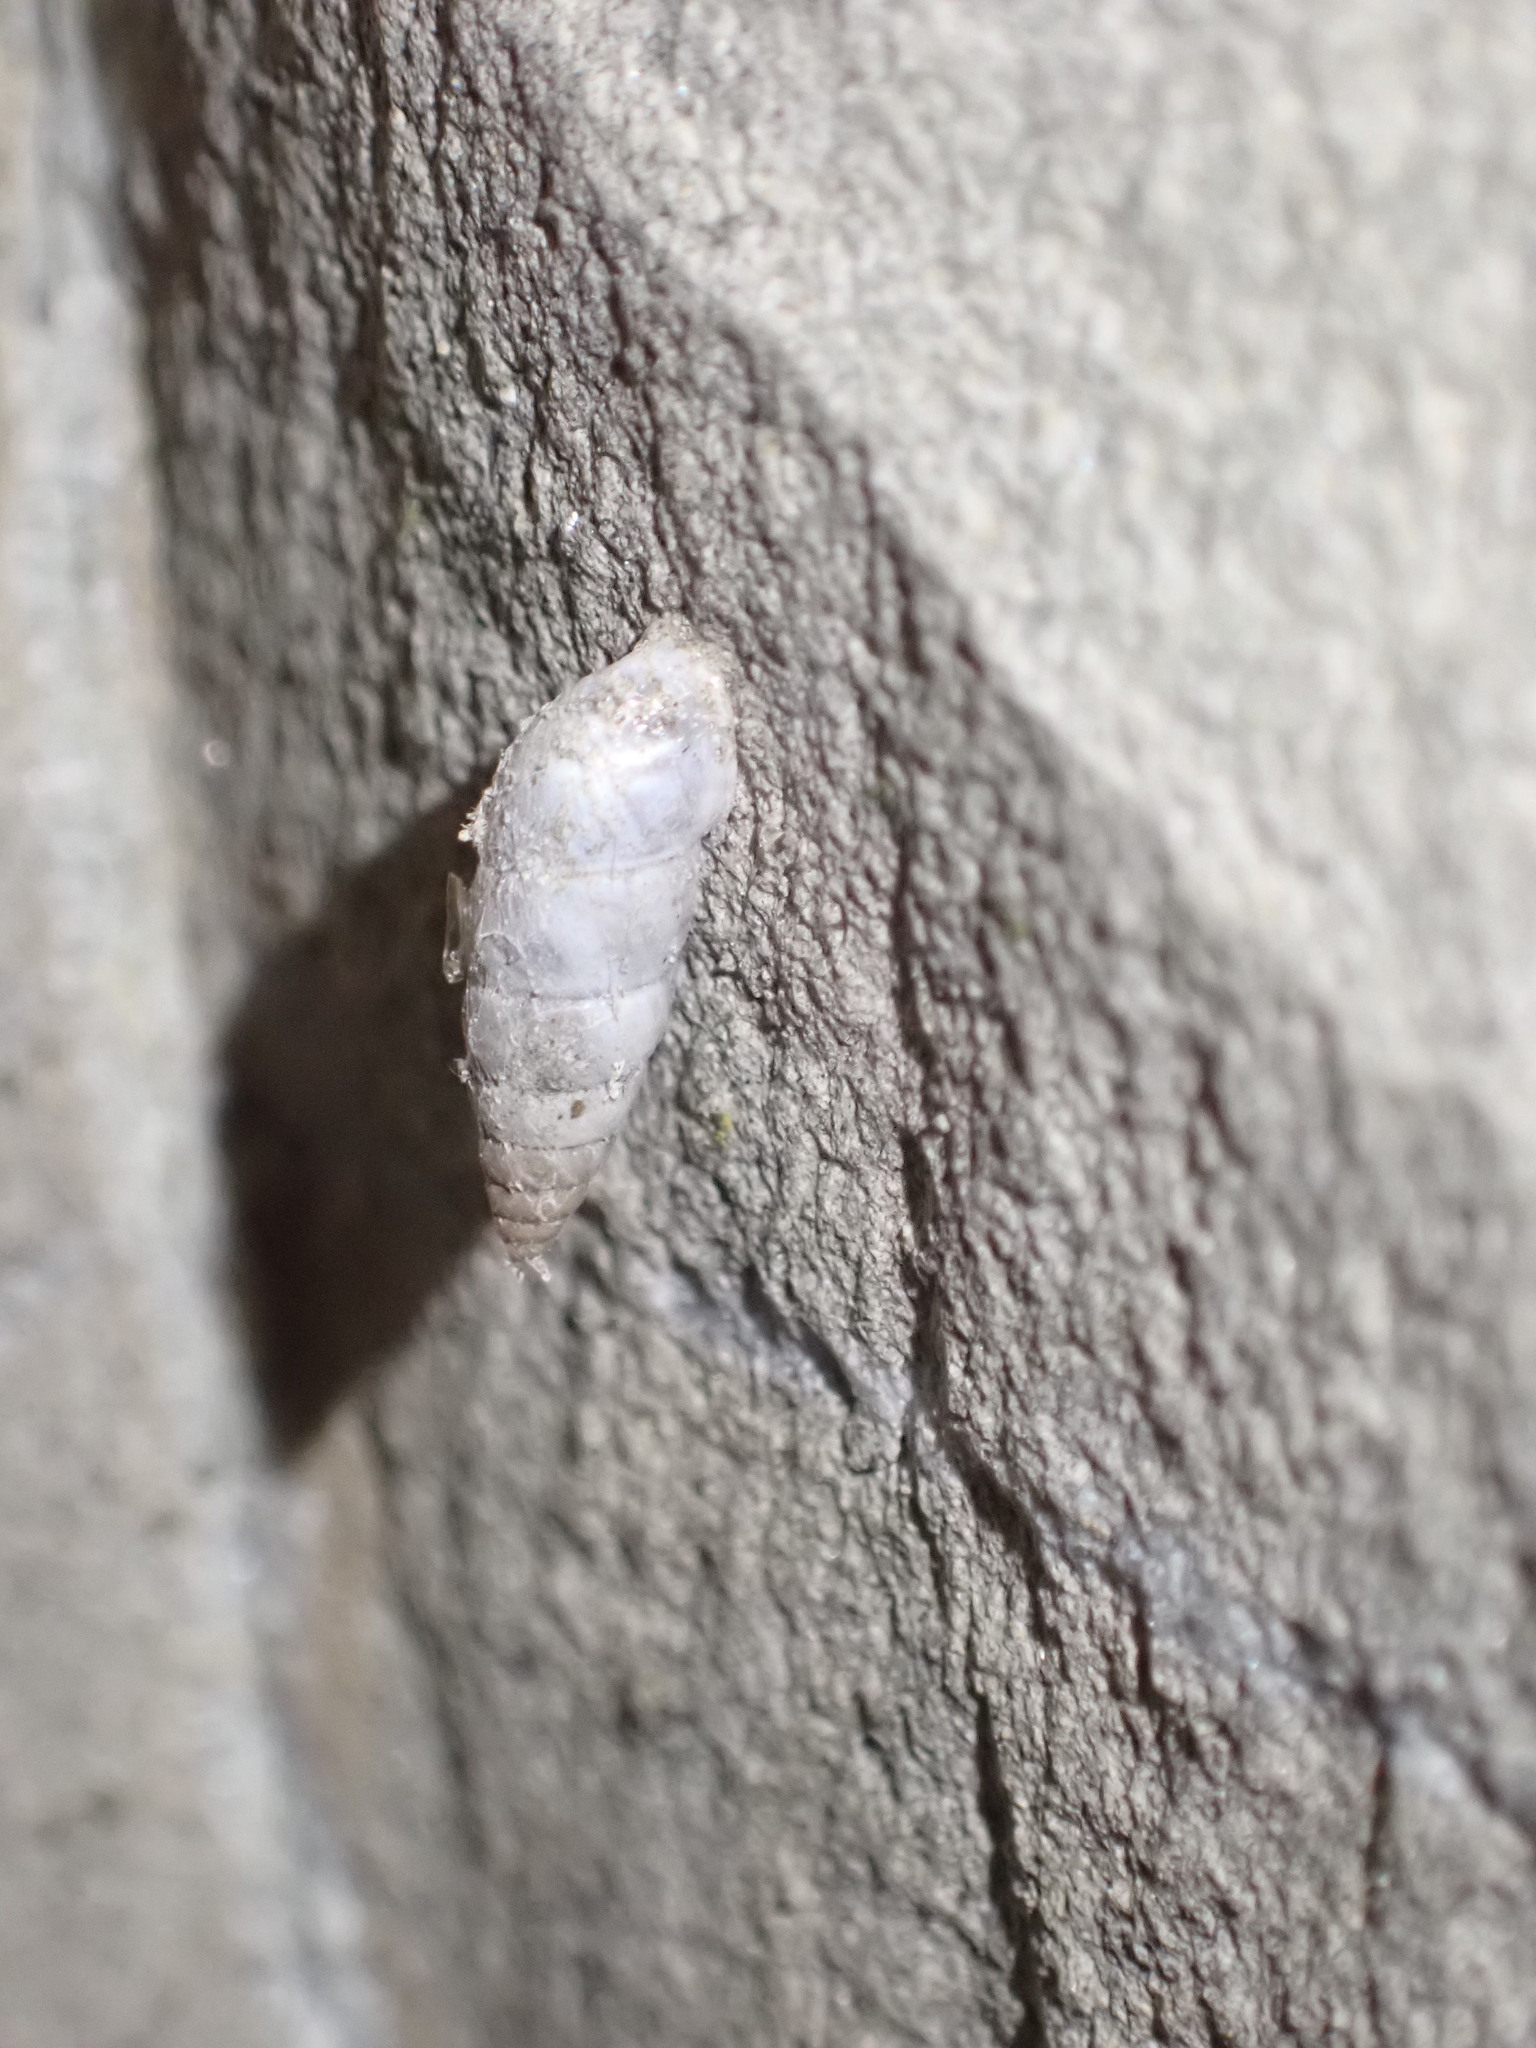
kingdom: Animalia
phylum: Mollusca
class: Gastropoda
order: Stylommatophora
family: Chondrinidae
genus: Solatopupa
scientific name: Solatopupa similis
